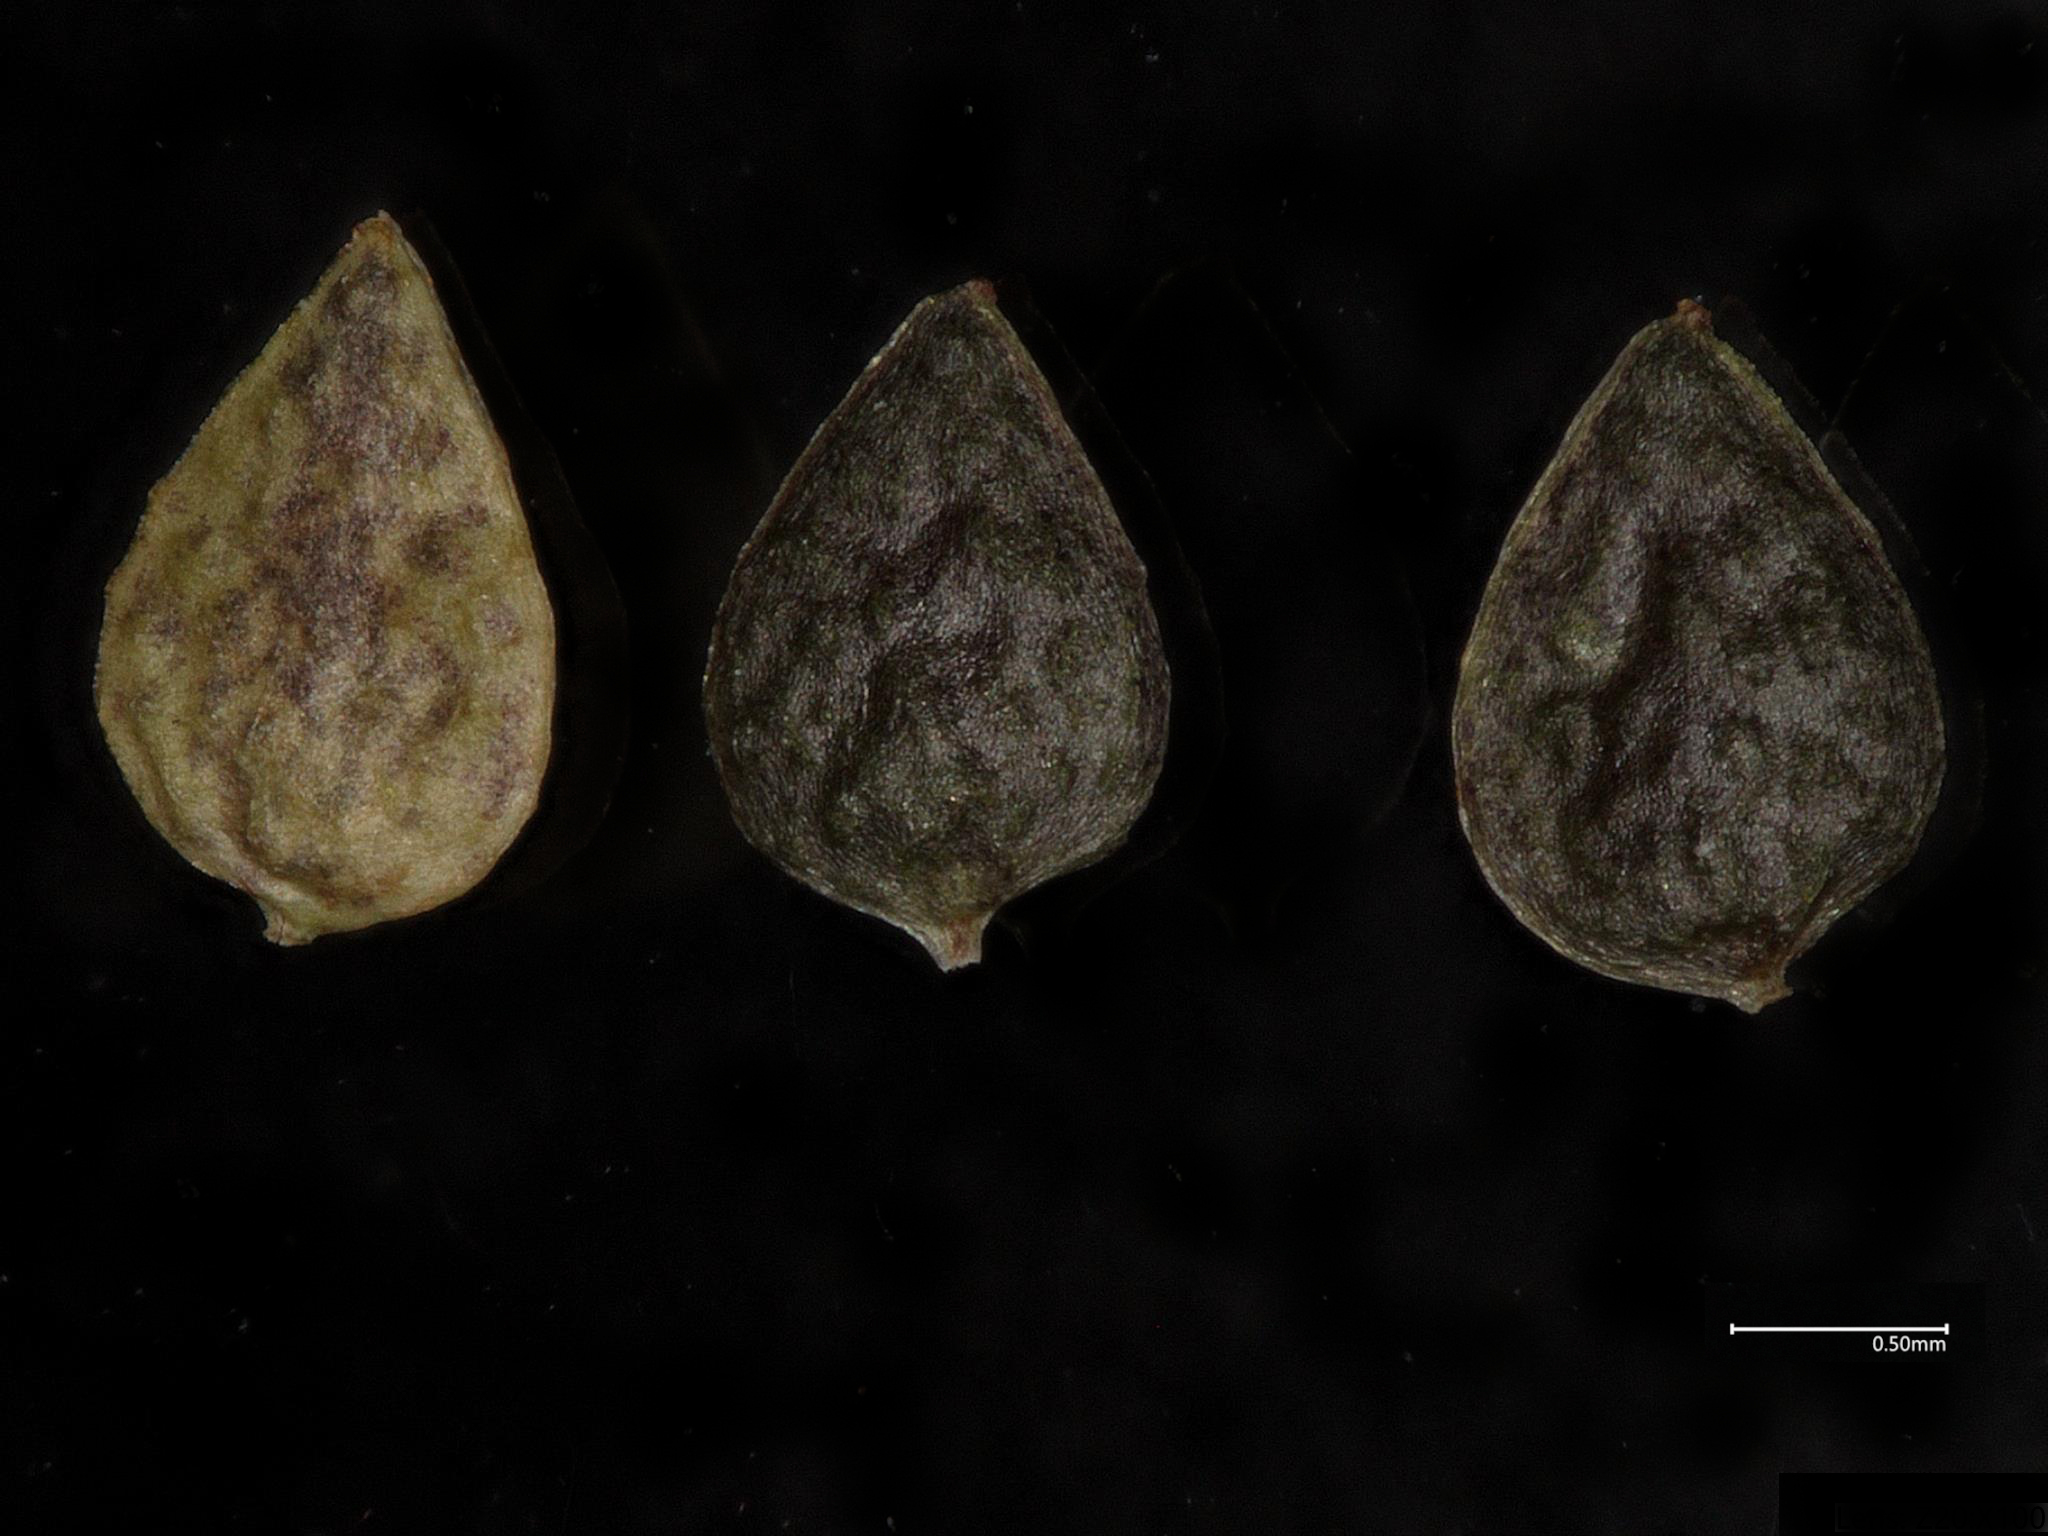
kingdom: Plantae
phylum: Tracheophyta
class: Magnoliopsida
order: Rosales
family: Urticaceae
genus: Pilea
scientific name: Pilea fontana
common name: Clearweed
